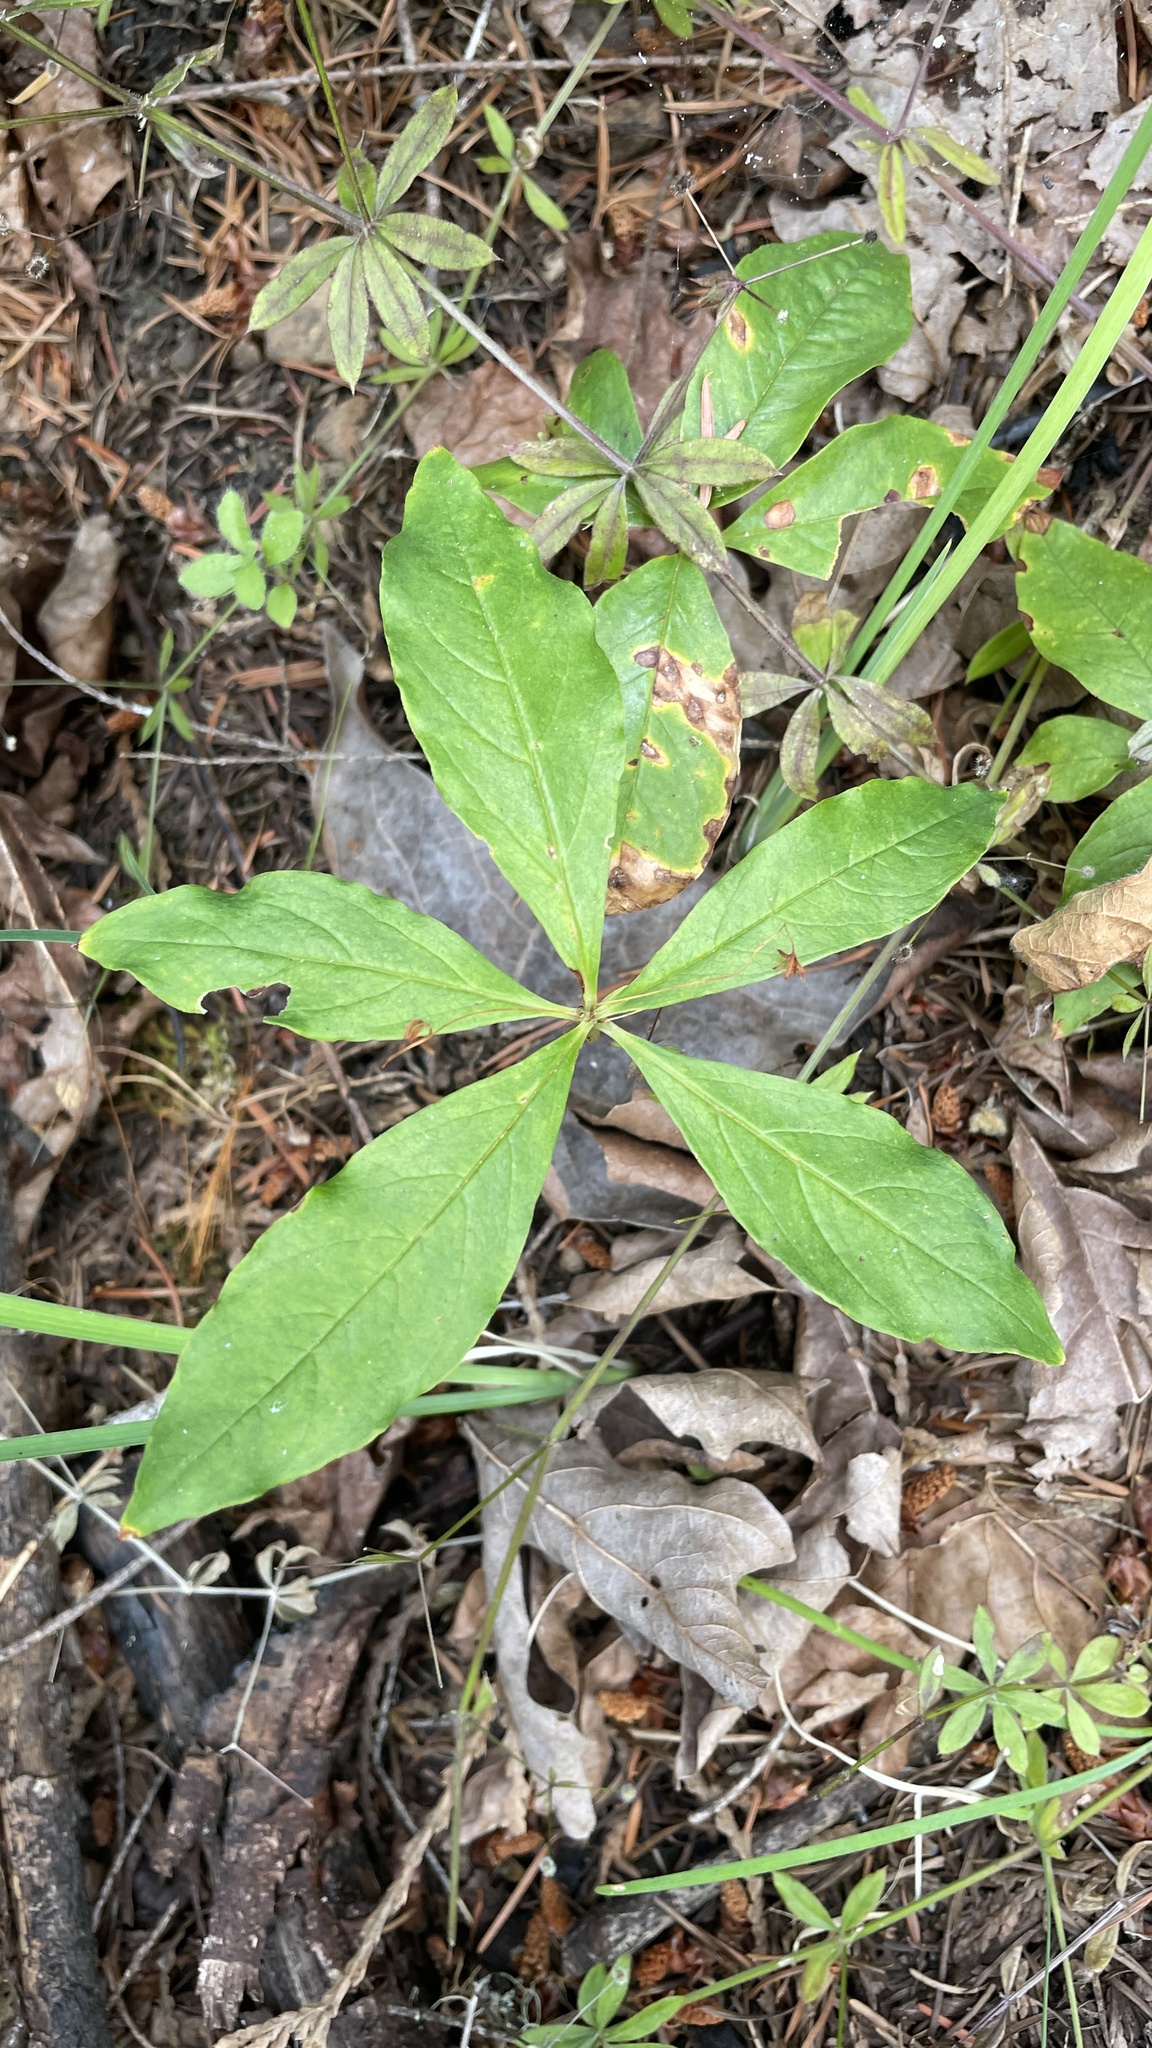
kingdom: Plantae
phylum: Tracheophyta
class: Magnoliopsida
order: Ericales
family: Primulaceae
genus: Lysimachia
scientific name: Lysimachia latifolia
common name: Pacific starflower
